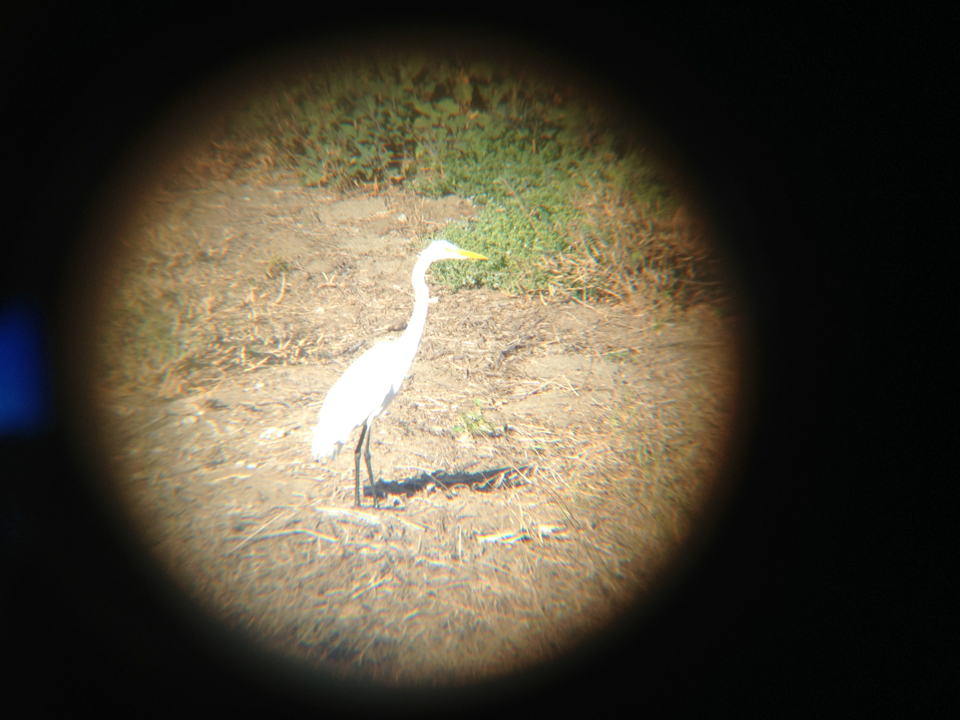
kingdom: Animalia
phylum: Chordata
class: Aves
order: Pelecaniformes
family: Ardeidae
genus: Ardea
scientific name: Ardea alba
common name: Great egret
